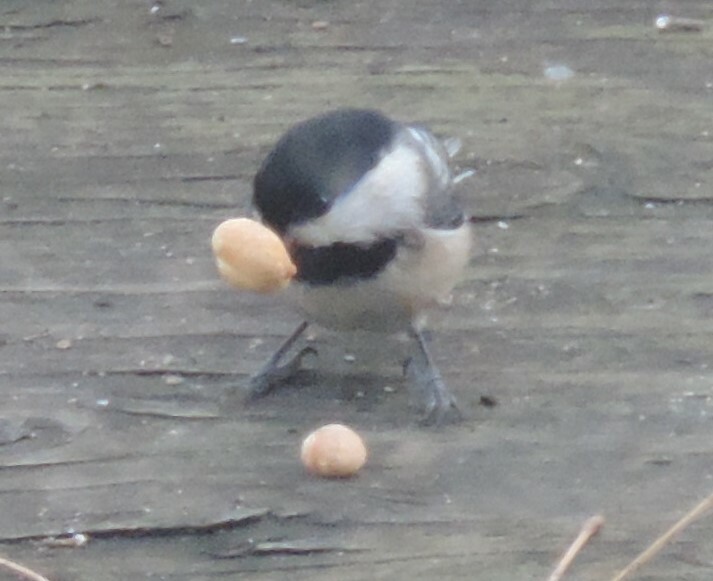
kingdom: Animalia
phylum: Chordata
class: Aves
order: Passeriformes
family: Paridae
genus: Poecile
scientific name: Poecile atricapillus
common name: Black-capped chickadee
